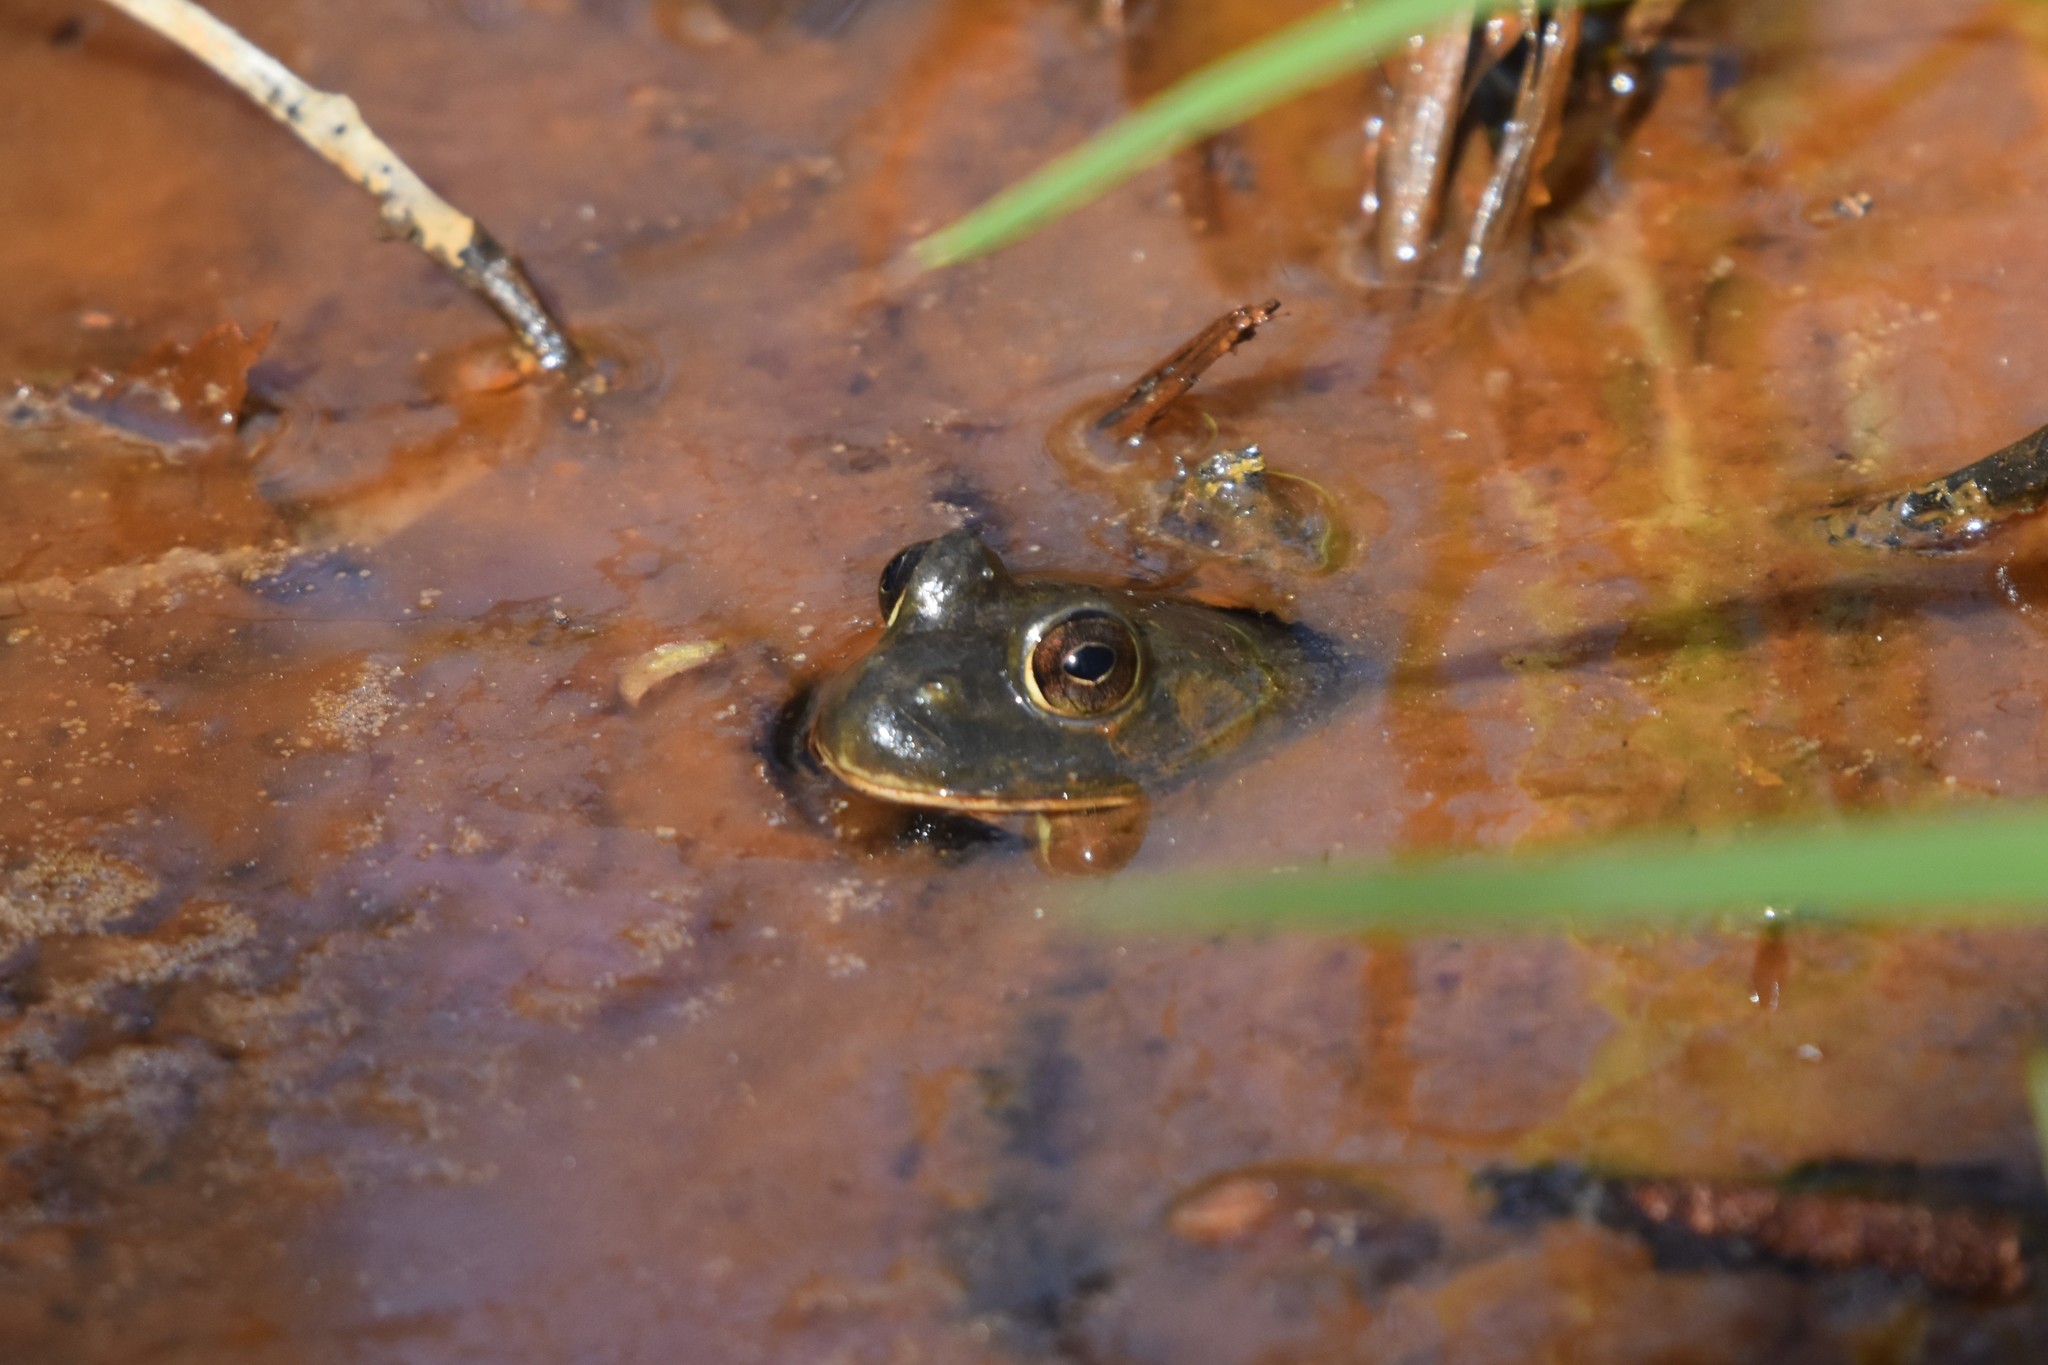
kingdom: Animalia
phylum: Chordata
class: Amphibia
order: Anura
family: Ranidae
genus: Lithobates
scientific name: Lithobates catesbeianus
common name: American bullfrog
